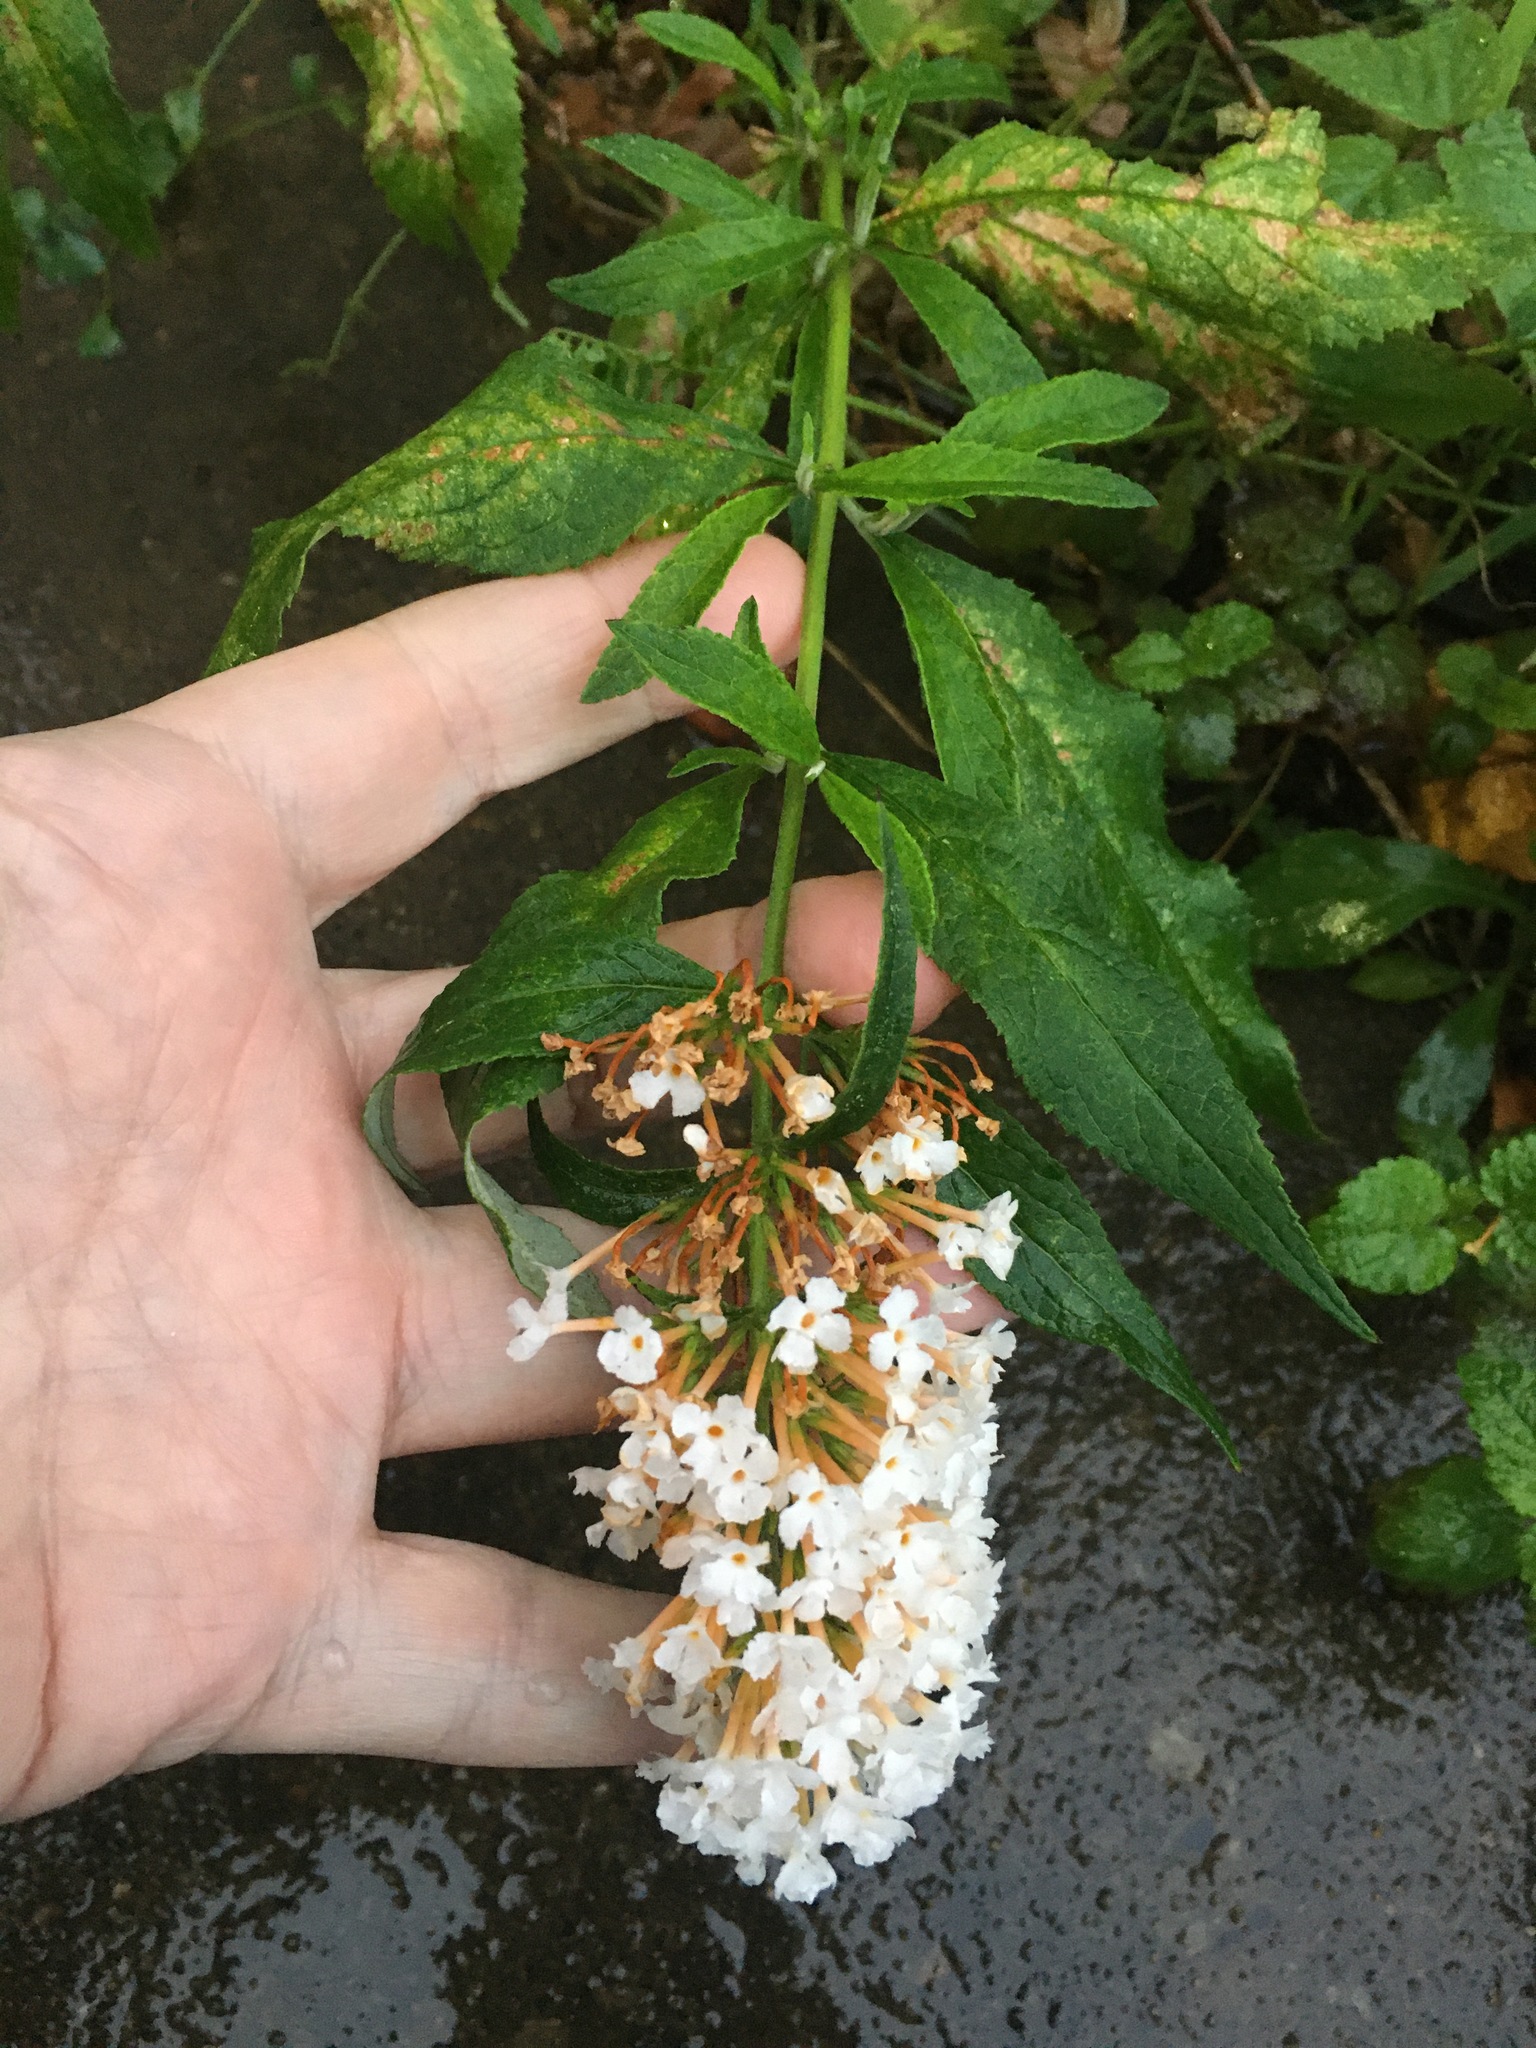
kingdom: Plantae
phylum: Tracheophyta
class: Magnoliopsida
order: Lamiales
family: Scrophulariaceae
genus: Buddleja
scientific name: Buddleja davidii
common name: Butterfly-bush
